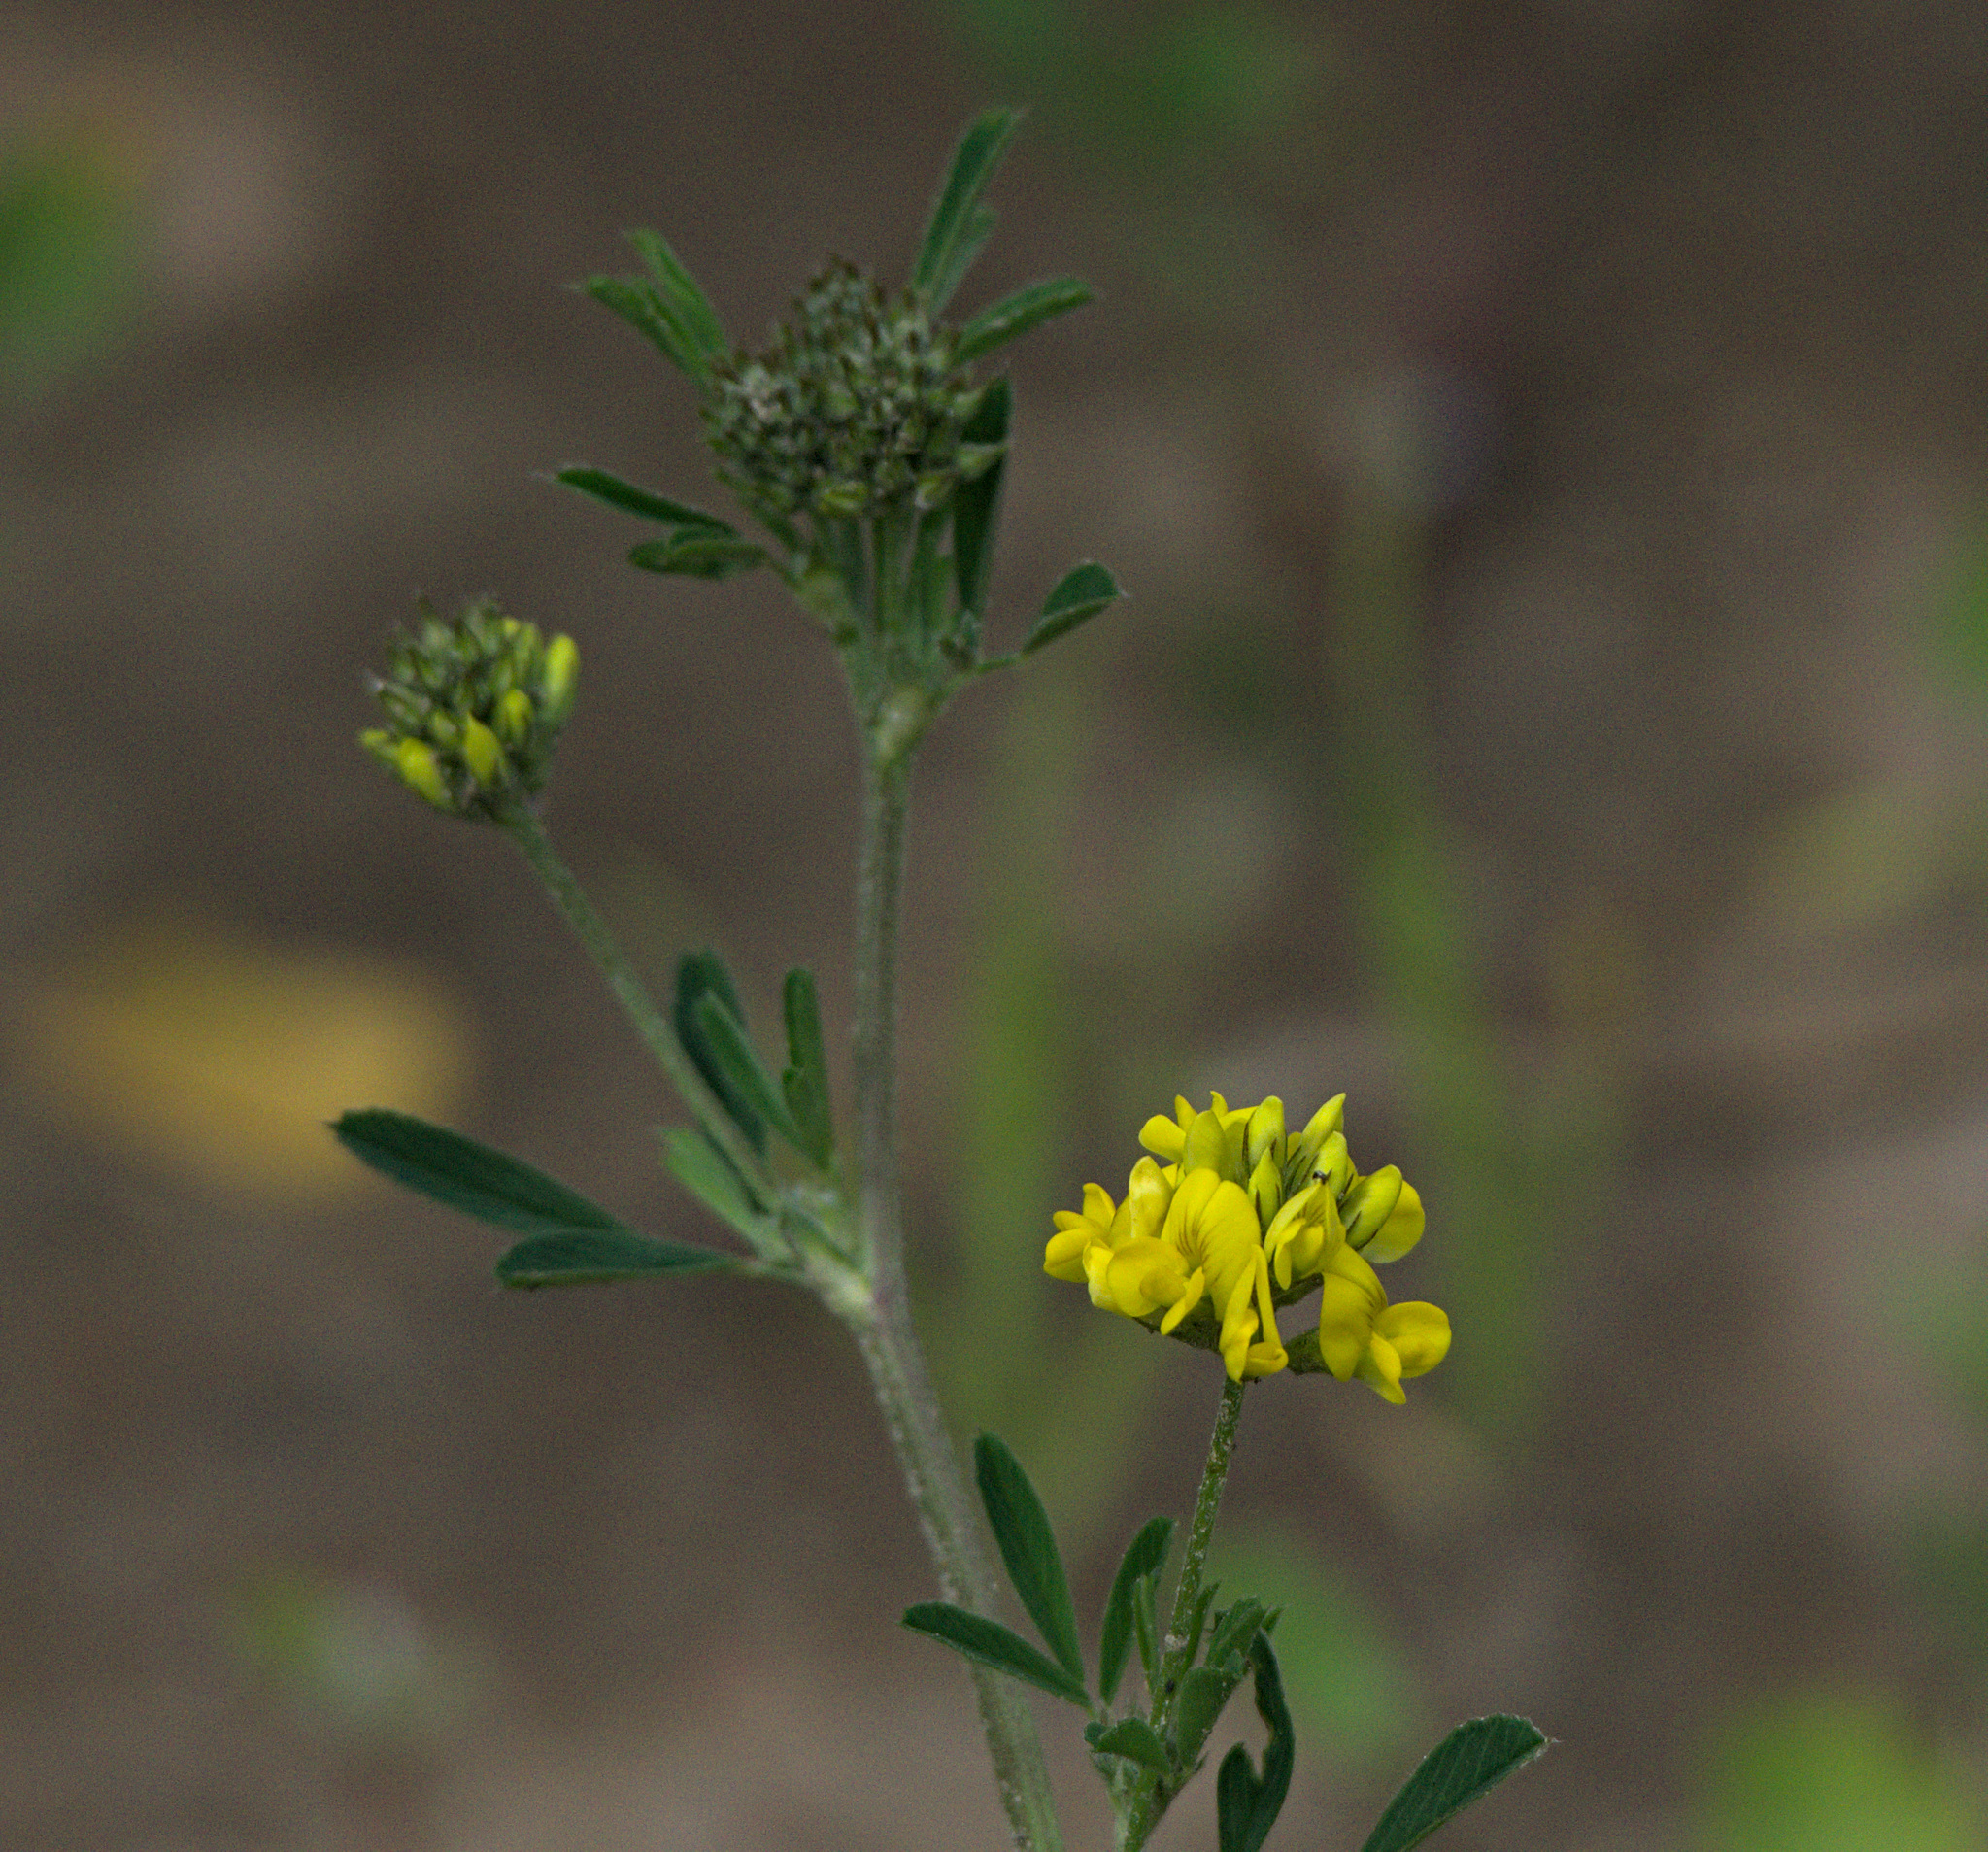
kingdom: Plantae
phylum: Tracheophyta
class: Magnoliopsida
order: Fabales
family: Fabaceae
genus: Medicago
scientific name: Medicago falcata
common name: Sickle medick
